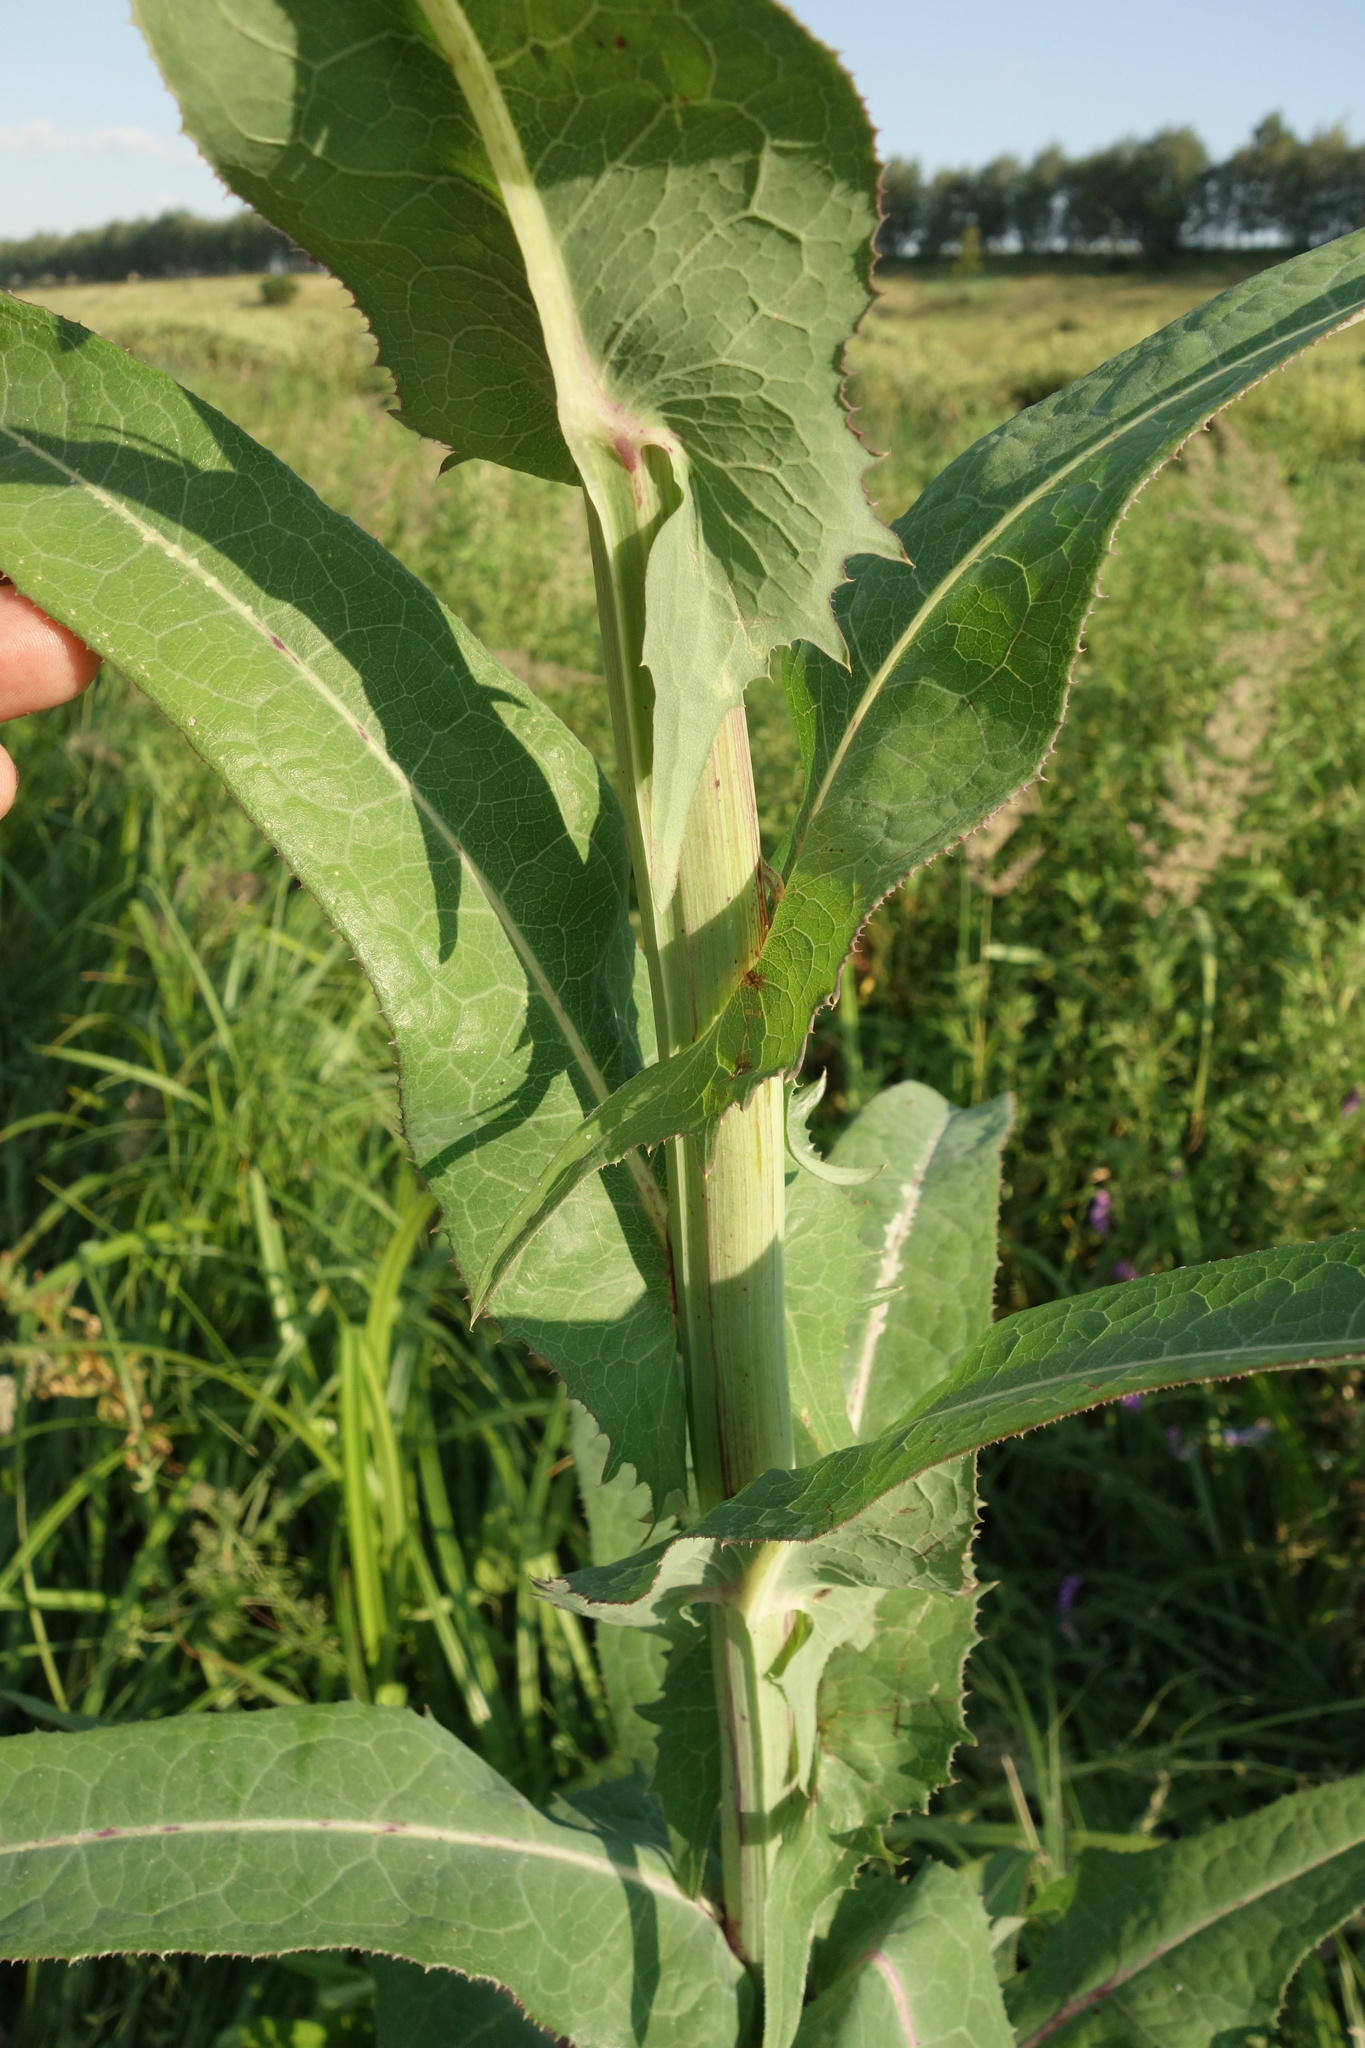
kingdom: Plantae
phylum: Tracheophyta
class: Magnoliopsida
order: Asterales
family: Asteraceae
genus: Sonchus
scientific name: Sonchus palustris
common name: Marsh sow-thistle
